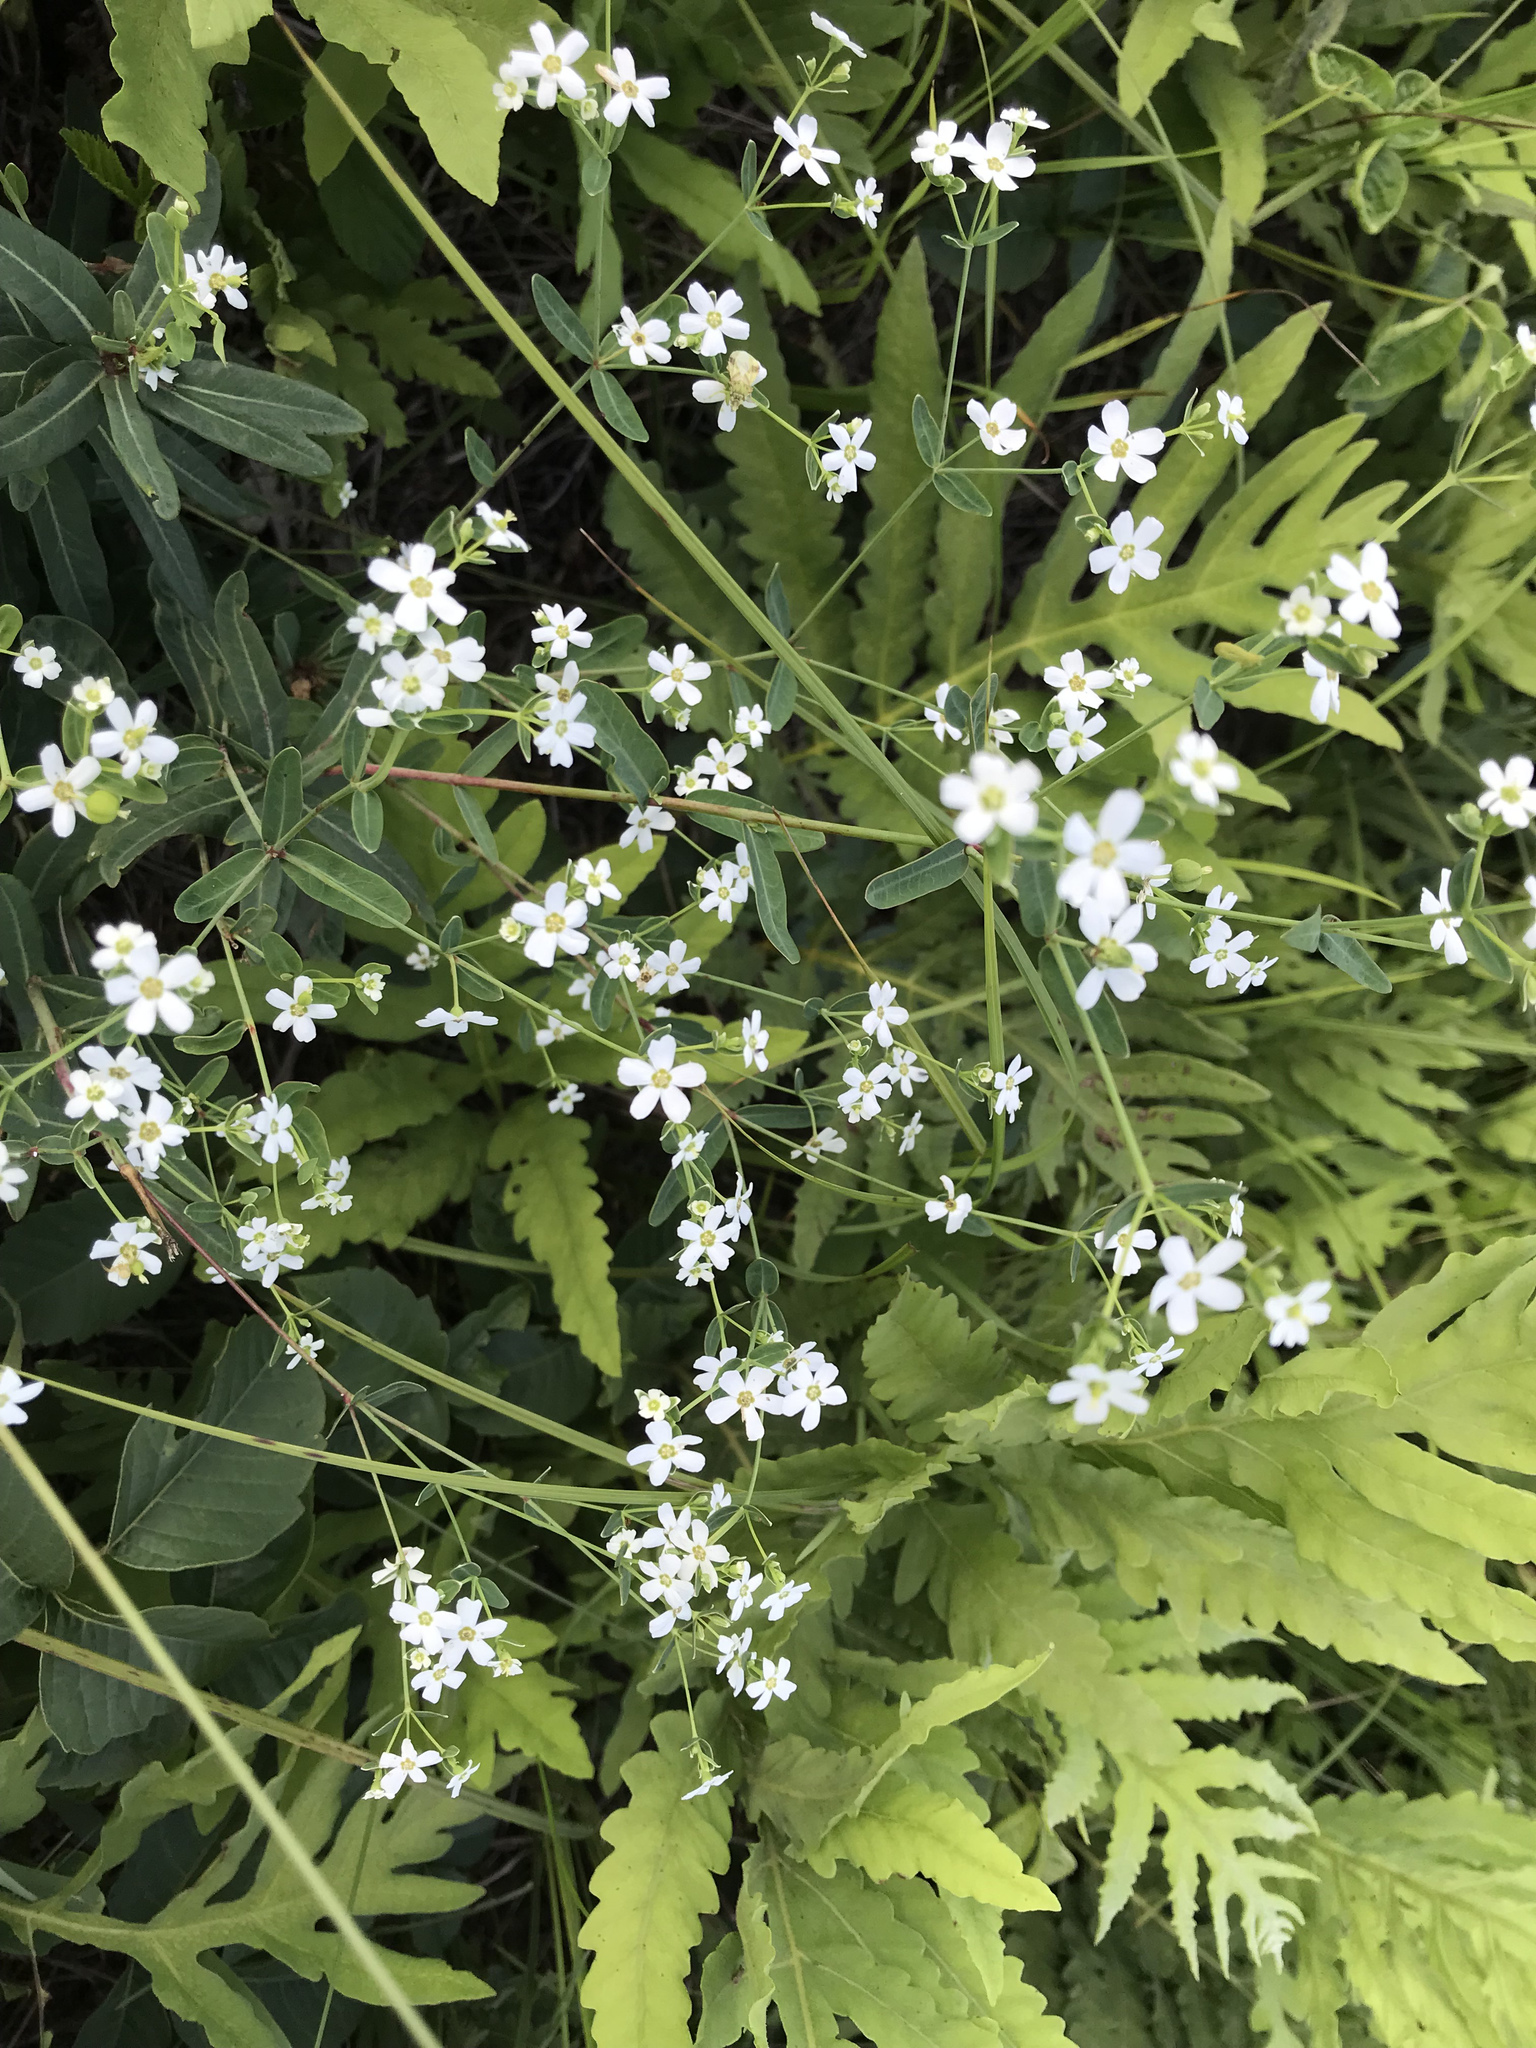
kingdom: Plantae
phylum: Tracheophyta
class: Magnoliopsida
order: Malpighiales
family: Euphorbiaceae
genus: Euphorbia
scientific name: Euphorbia corollata
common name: Flowering spurge
